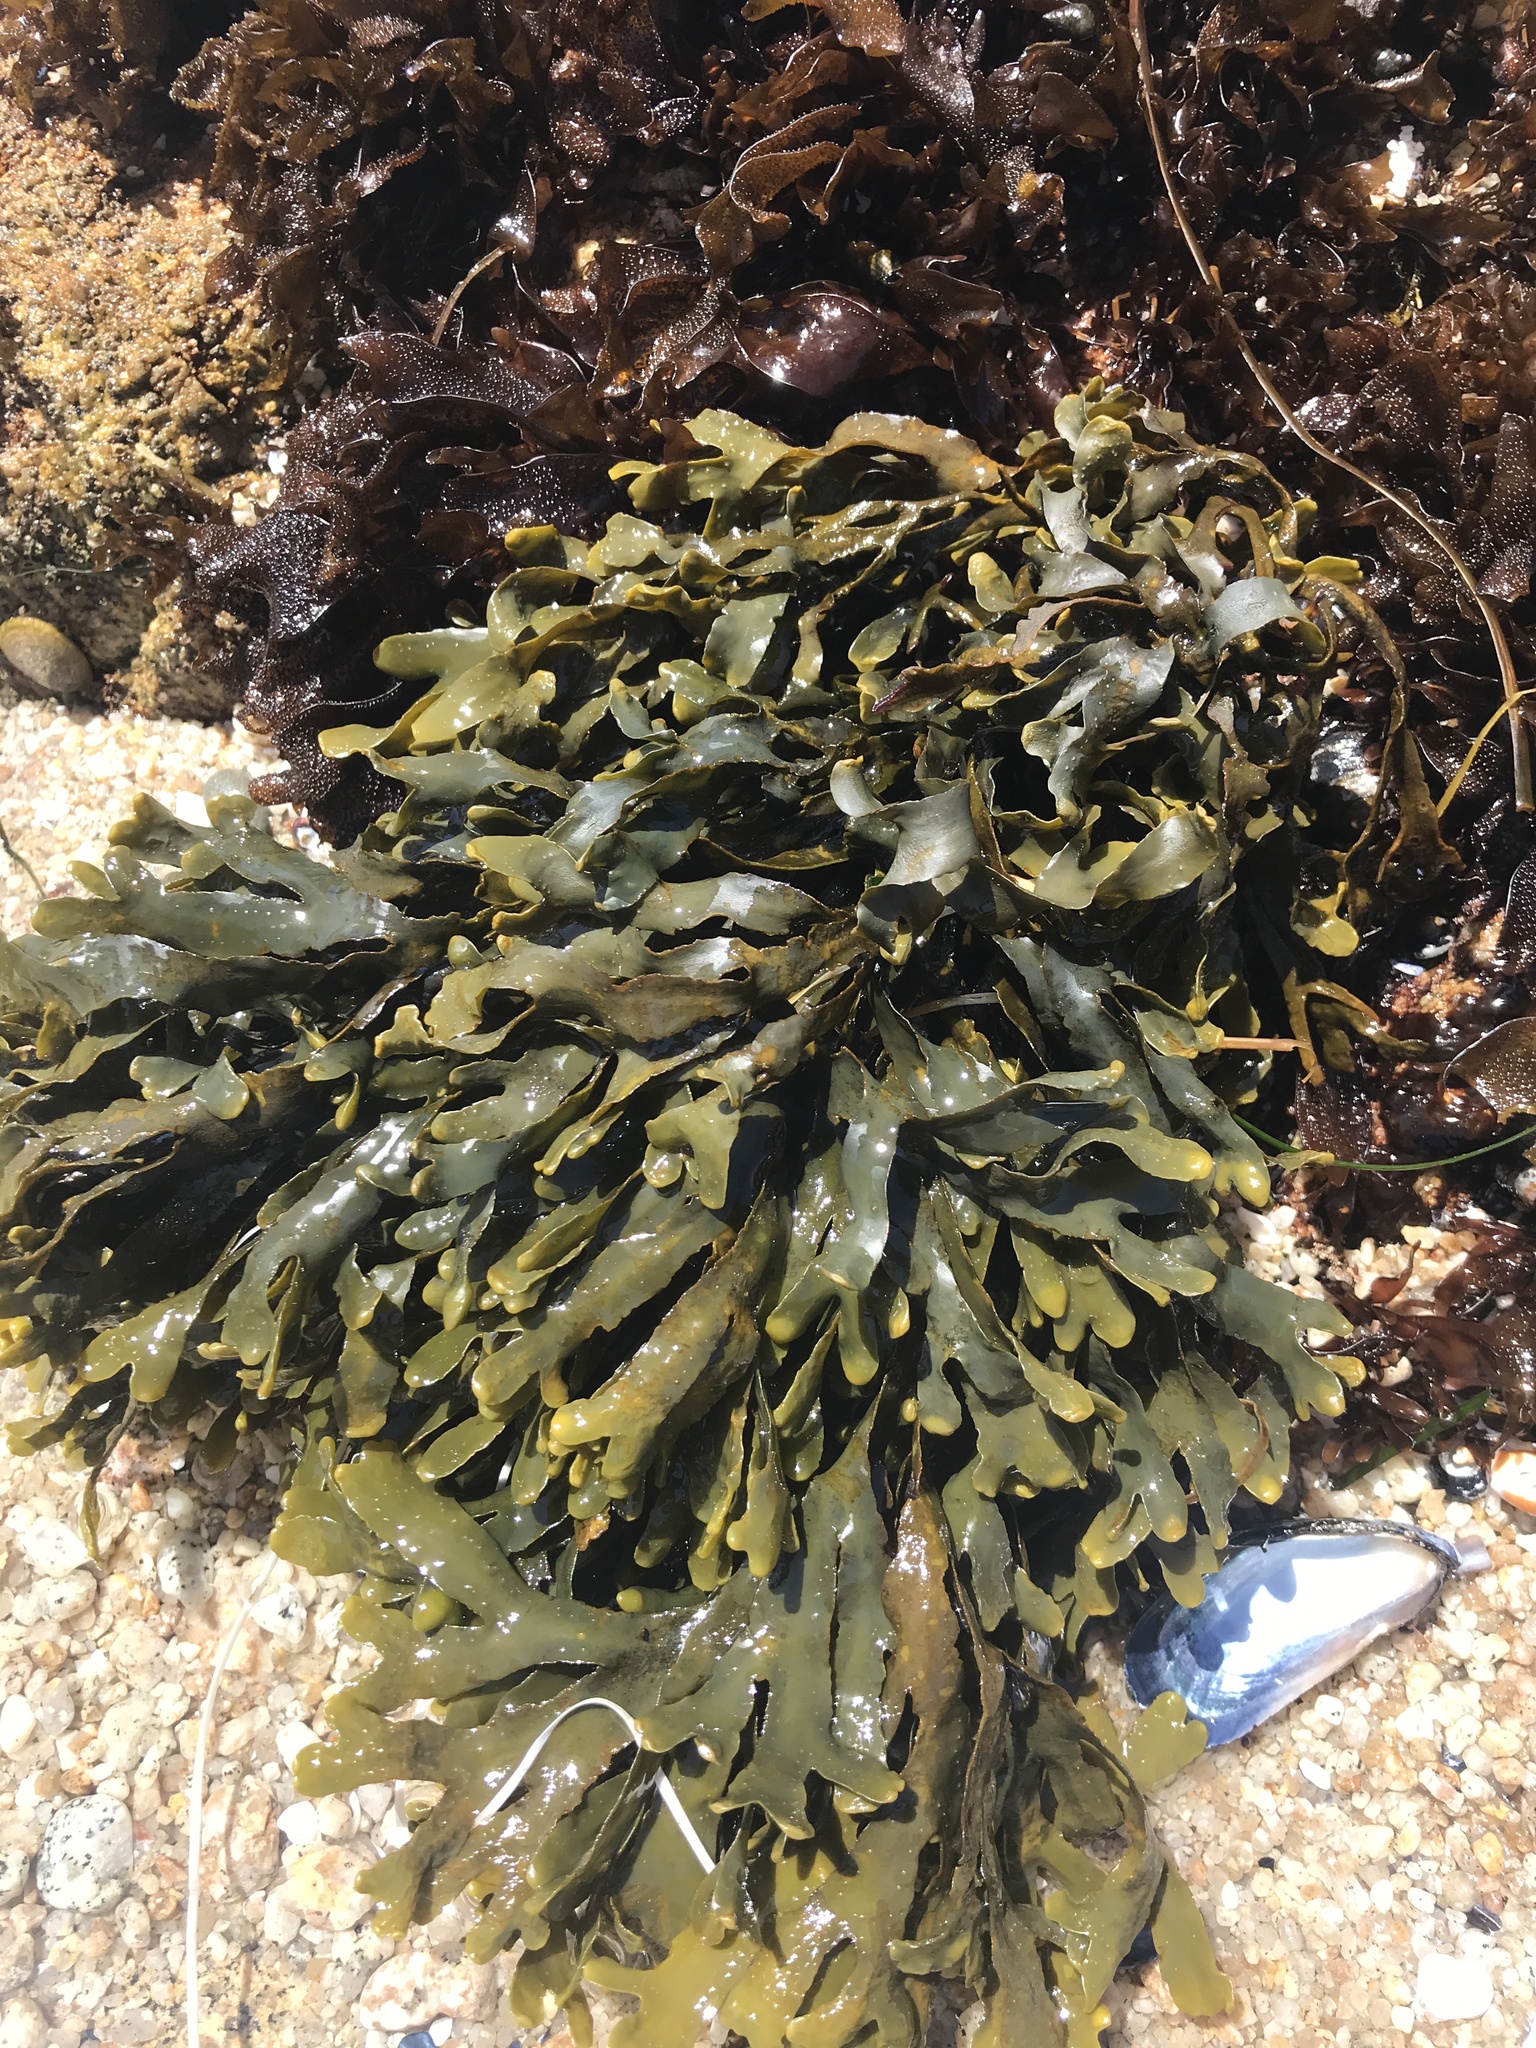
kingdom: Chromista
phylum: Ochrophyta
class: Phaeophyceae
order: Fucales
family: Fucaceae
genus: Pelvetiopsis
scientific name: Pelvetiopsis
